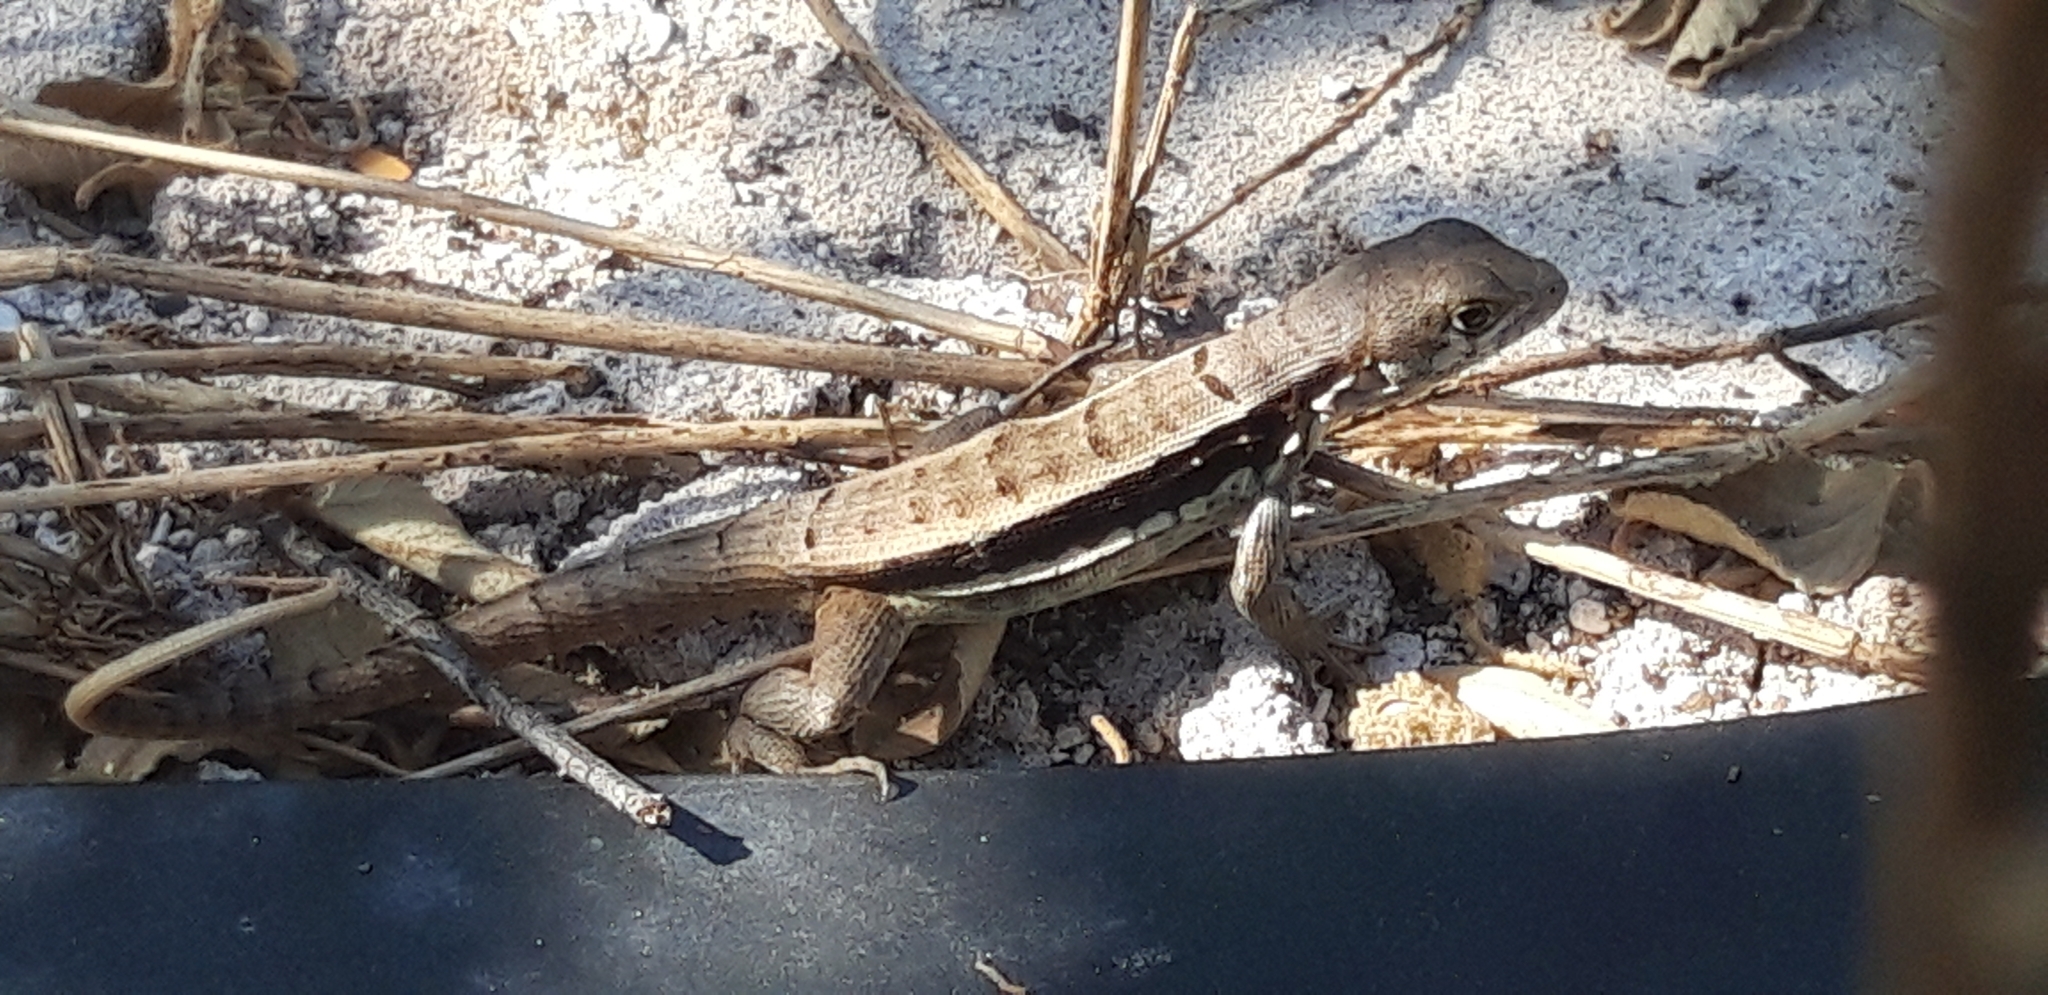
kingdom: Animalia
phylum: Chordata
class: Squamata
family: Leiocephalidae
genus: Leiocephalus
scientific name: Leiocephalus psammodromus
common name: Bastion cay curlytail lizard
